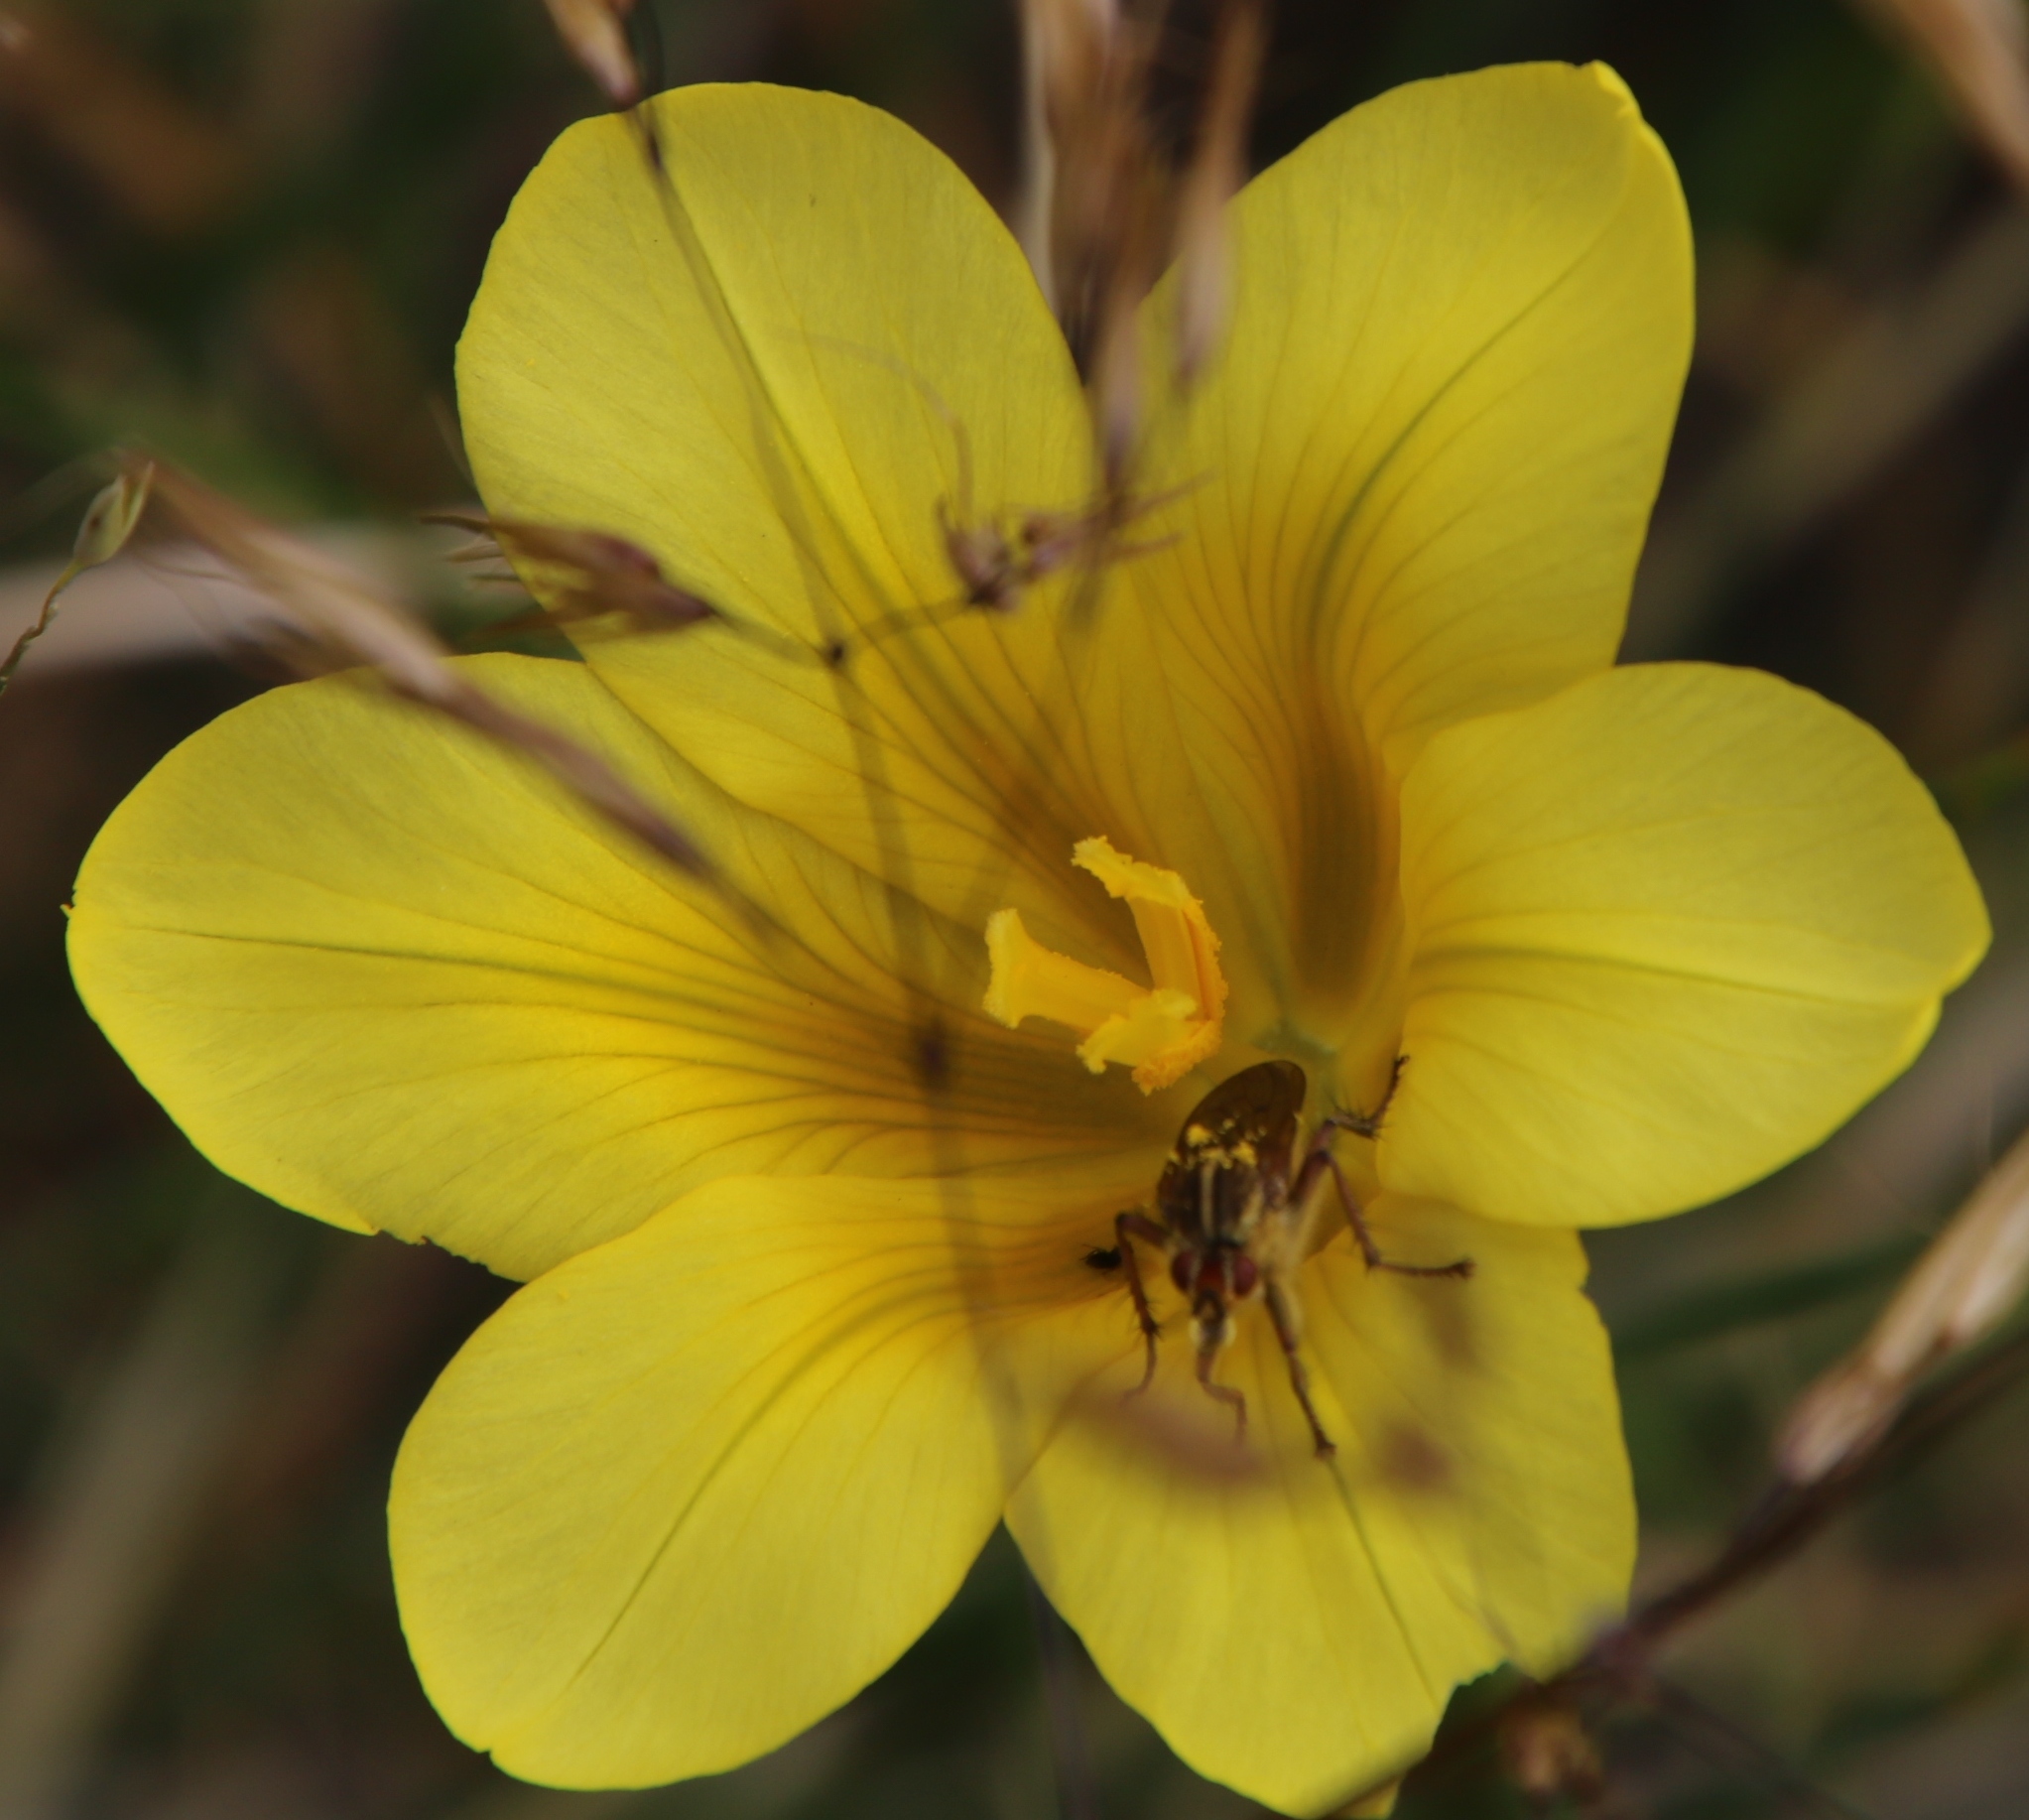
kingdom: Plantae
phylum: Tracheophyta
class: Liliopsida
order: Asparagales
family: Iridaceae
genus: Moraea
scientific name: Moraea ochroleuca
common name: Red tulp
